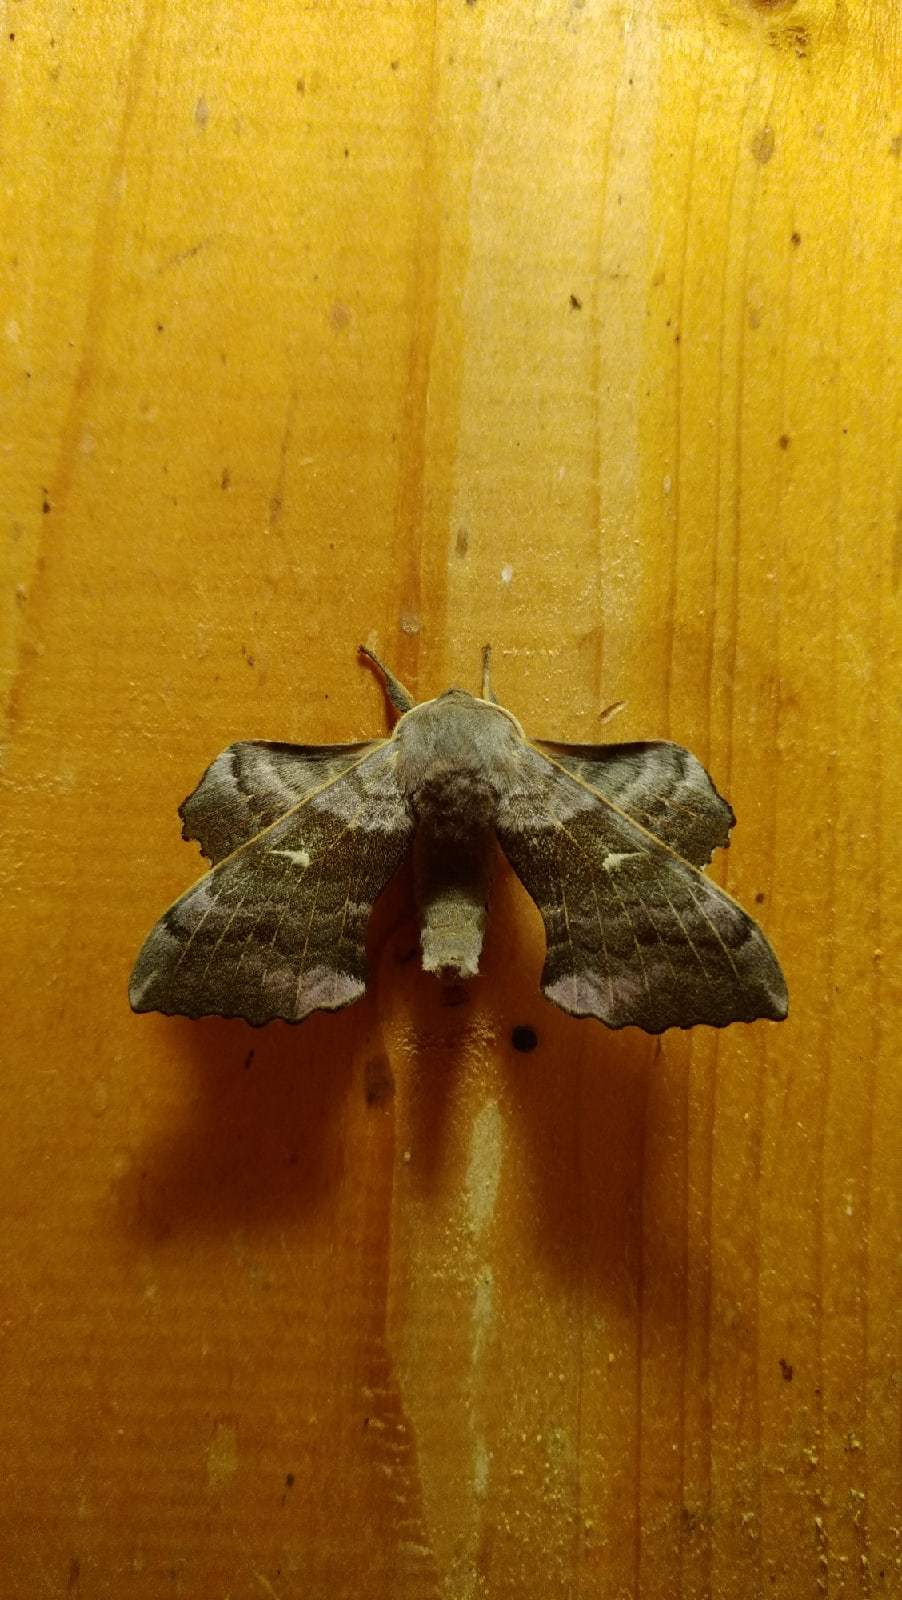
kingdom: Animalia
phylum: Arthropoda
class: Insecta
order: Lepidoptera
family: Sphingidae
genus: Laothoe
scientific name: Laothoe populi
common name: Poplar hawk-moth
